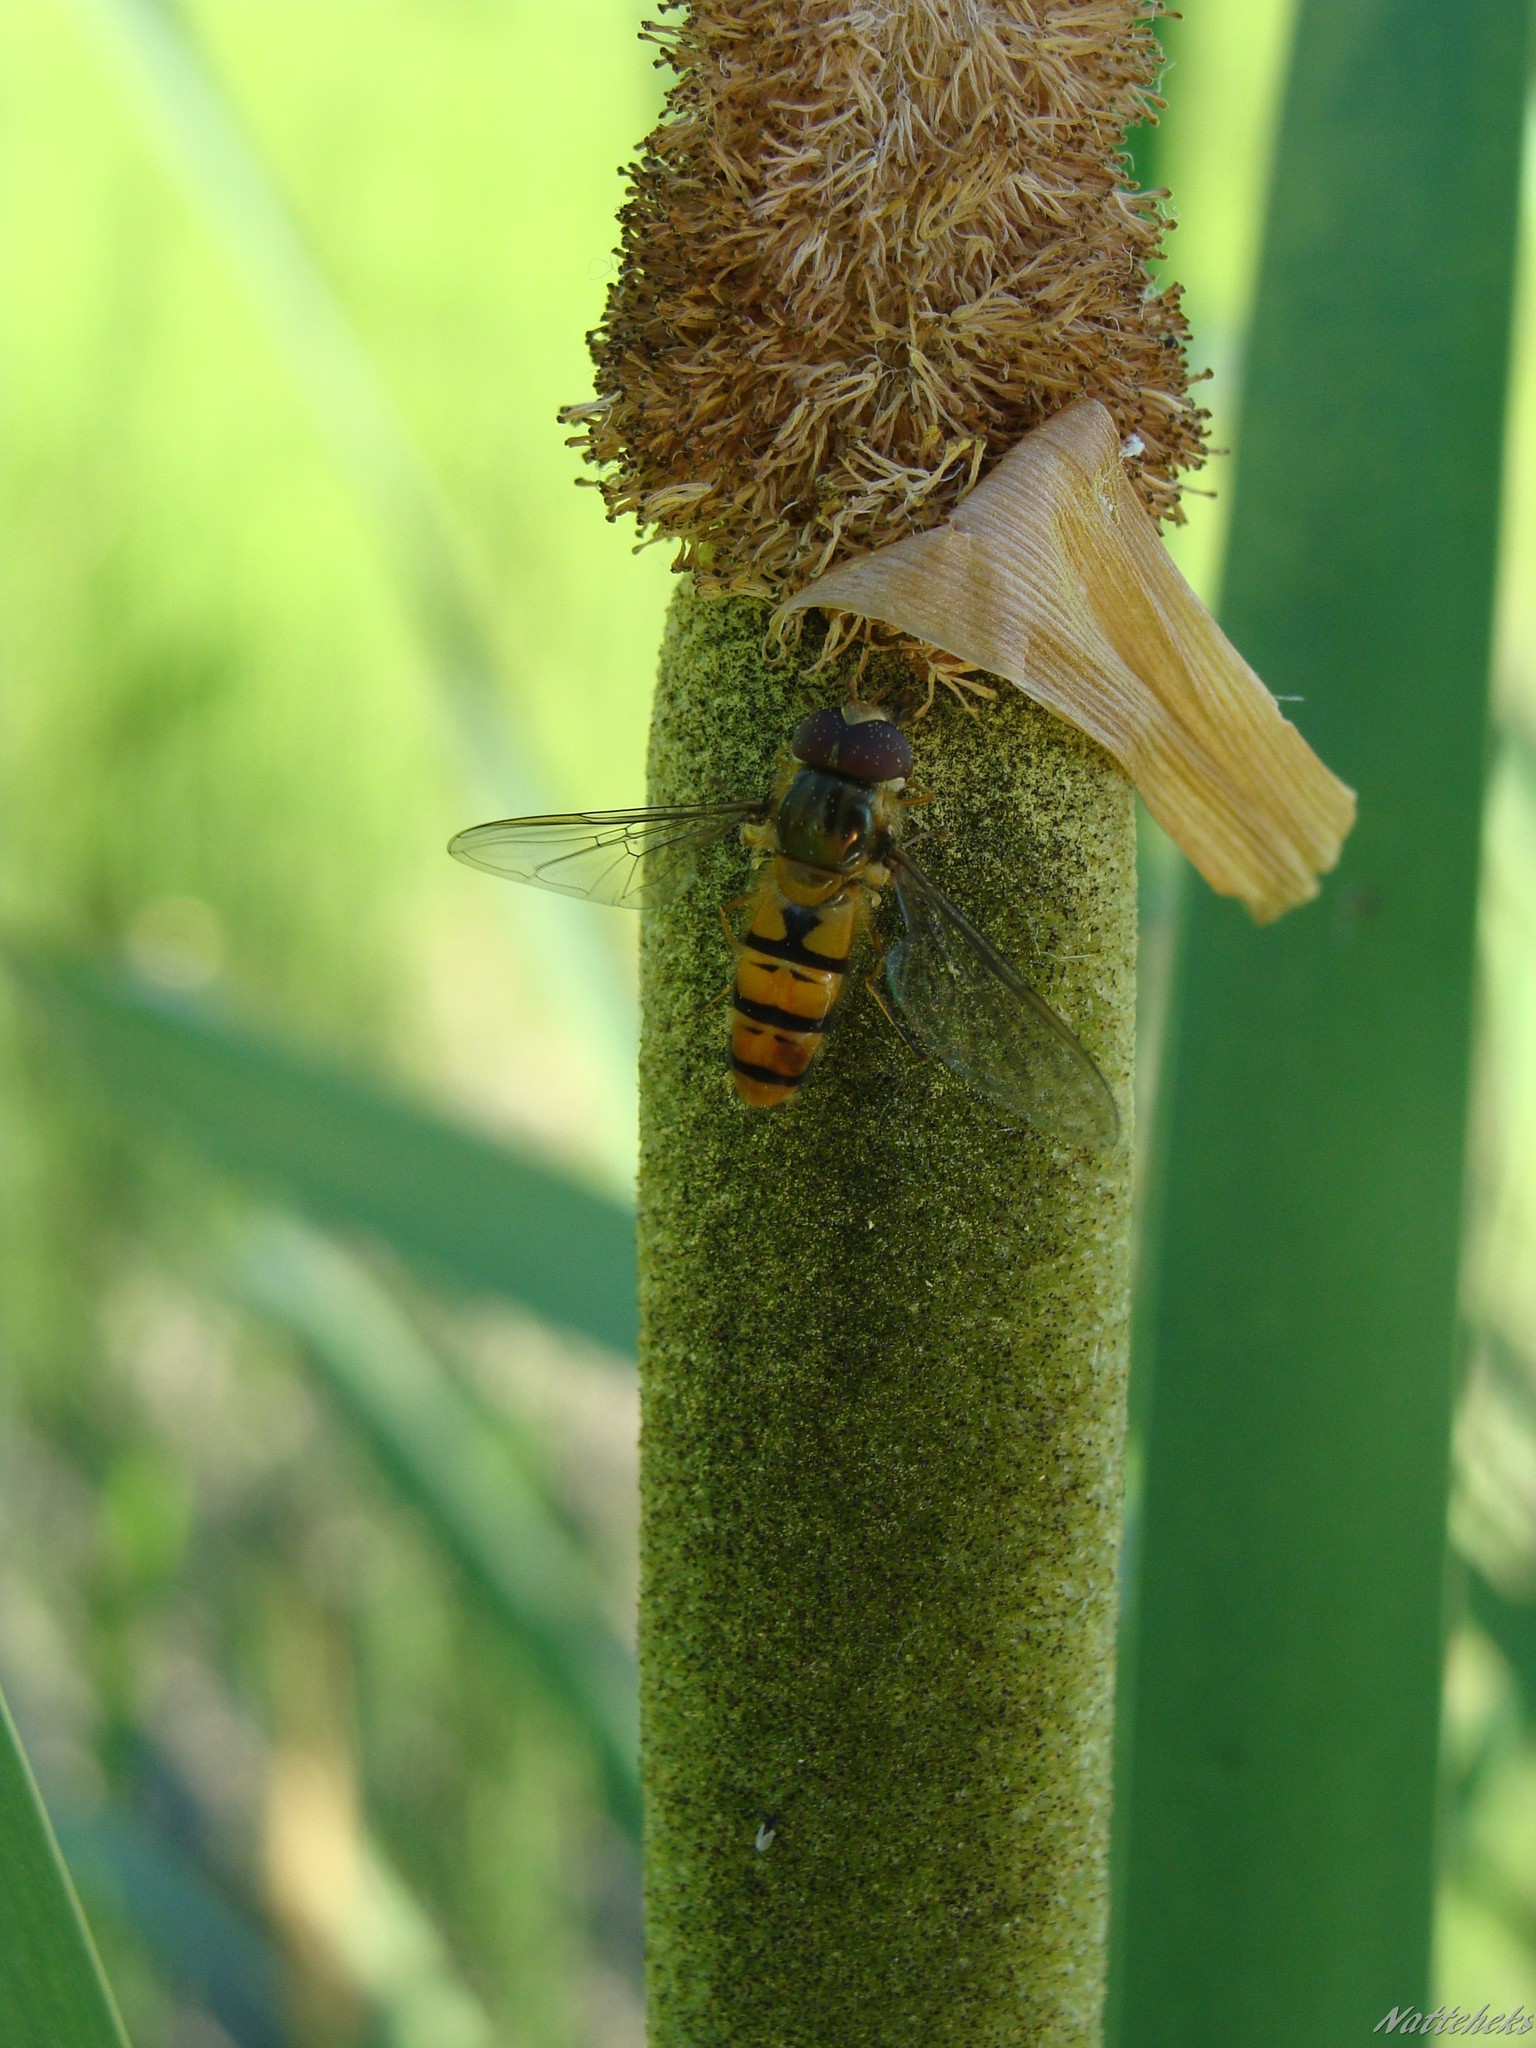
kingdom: Animalia
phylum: Arthropoda
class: Insecta
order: Diptera
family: Syrphidae
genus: Episyrphus
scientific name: Episyrphus balteatus
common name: Marmalade hoverfly
